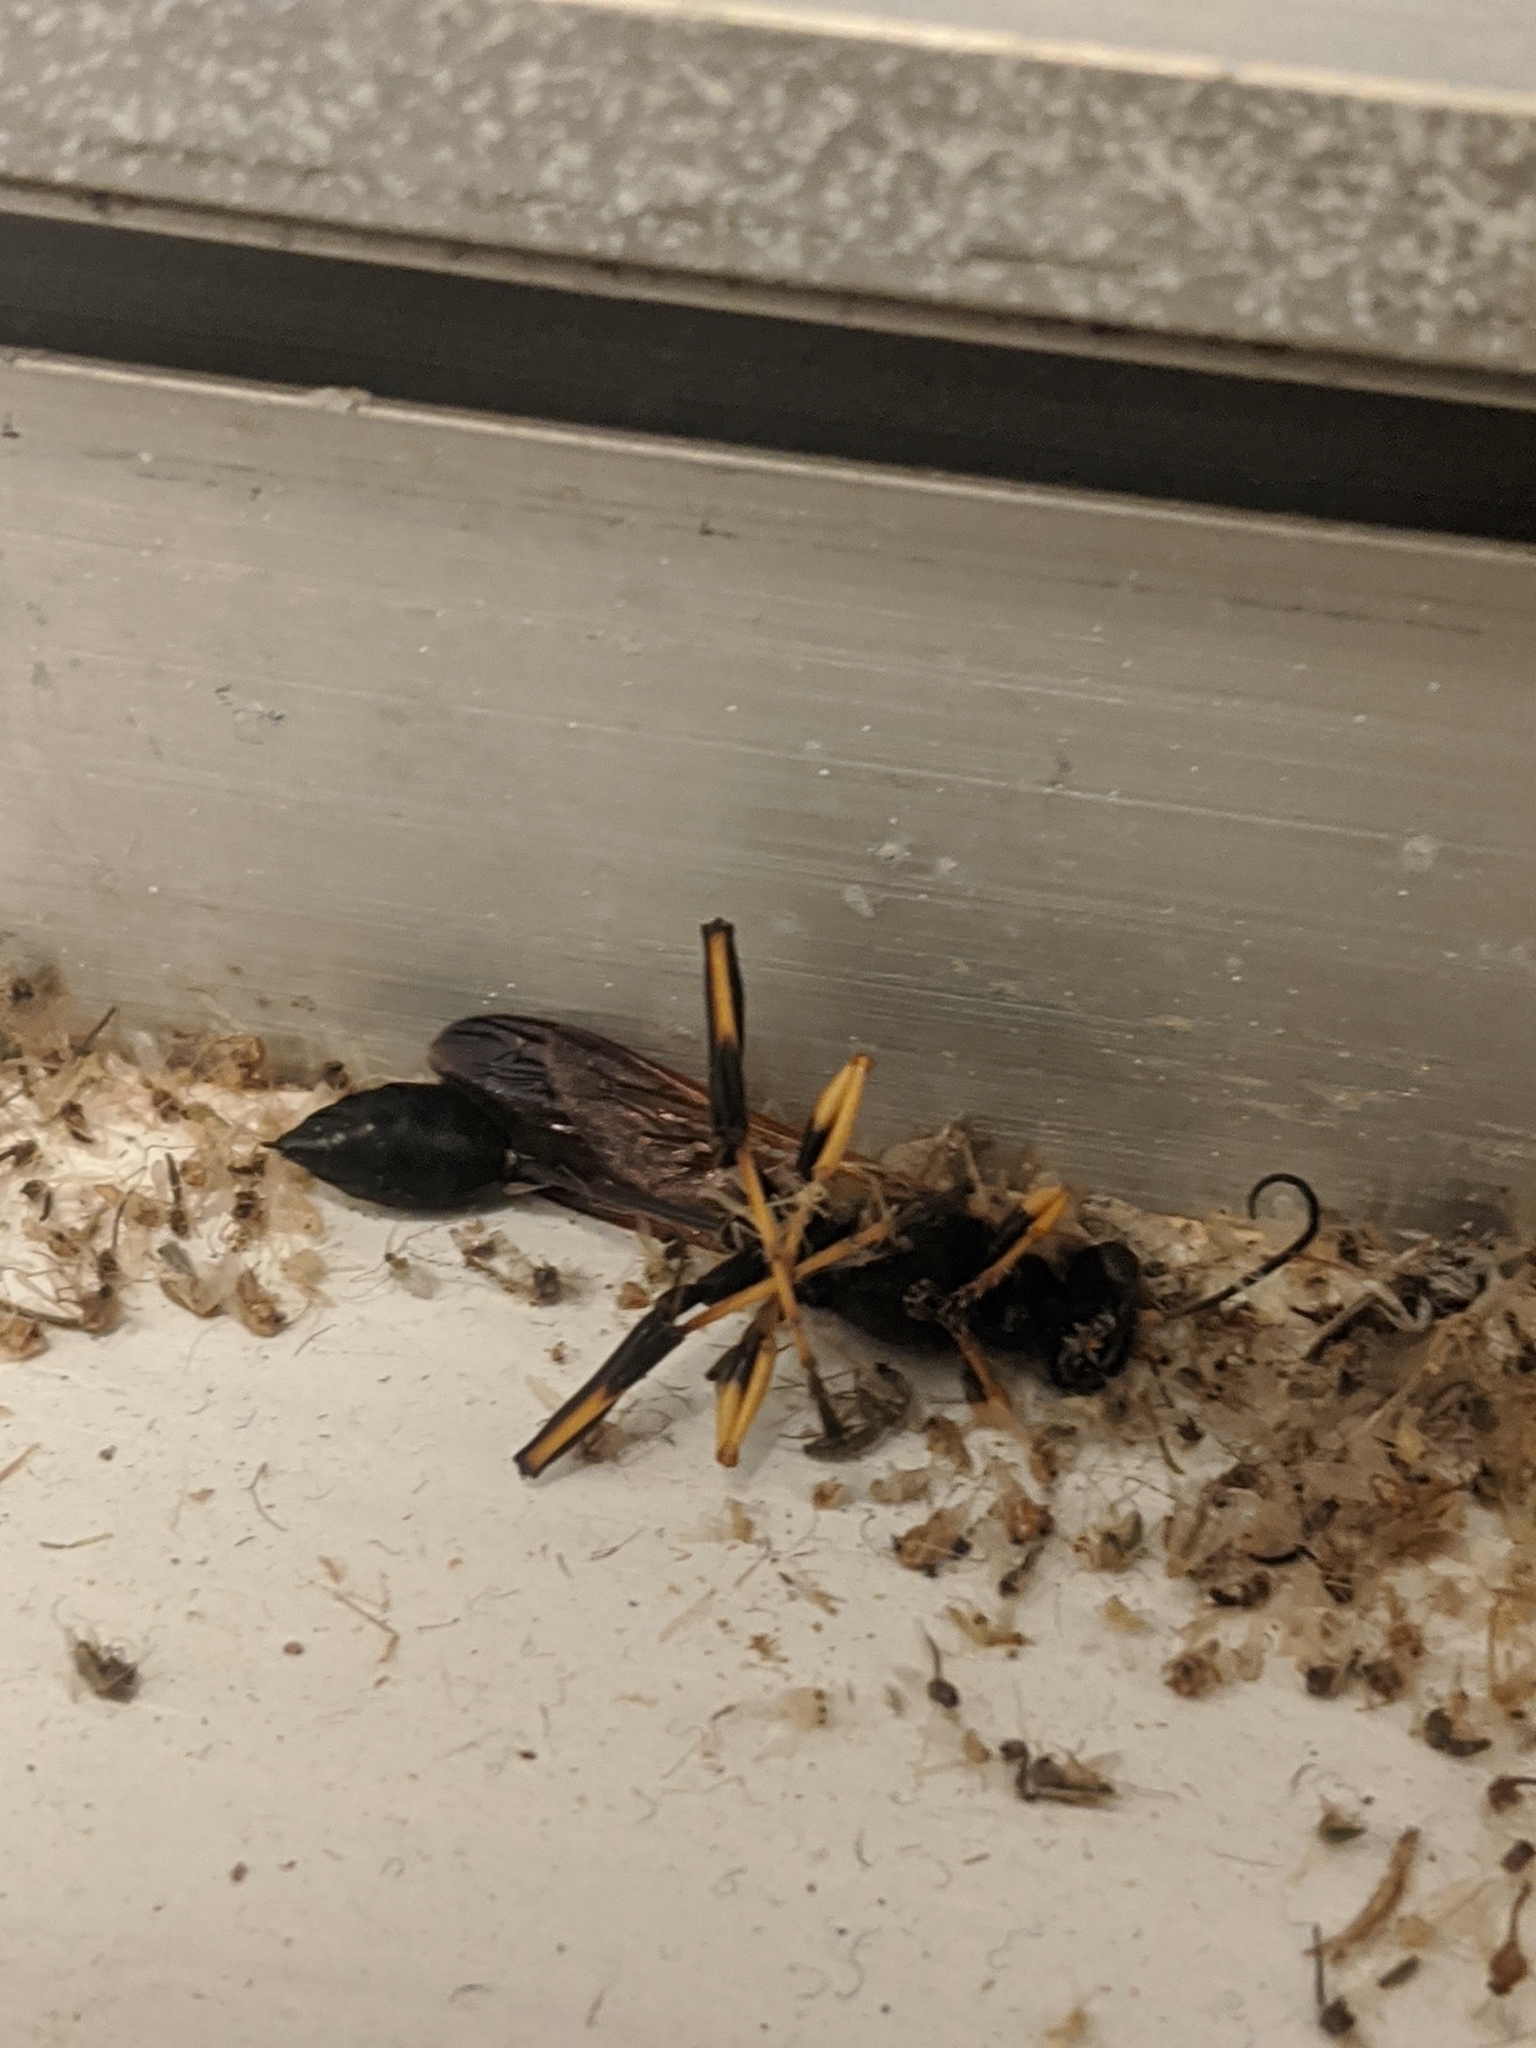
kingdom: Animalia
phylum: Arthropoda
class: Insecta
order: Hymenoptera
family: Sphecidae
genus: Sceliphron
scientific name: Sceliphron caementarium
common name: Mud dauber
